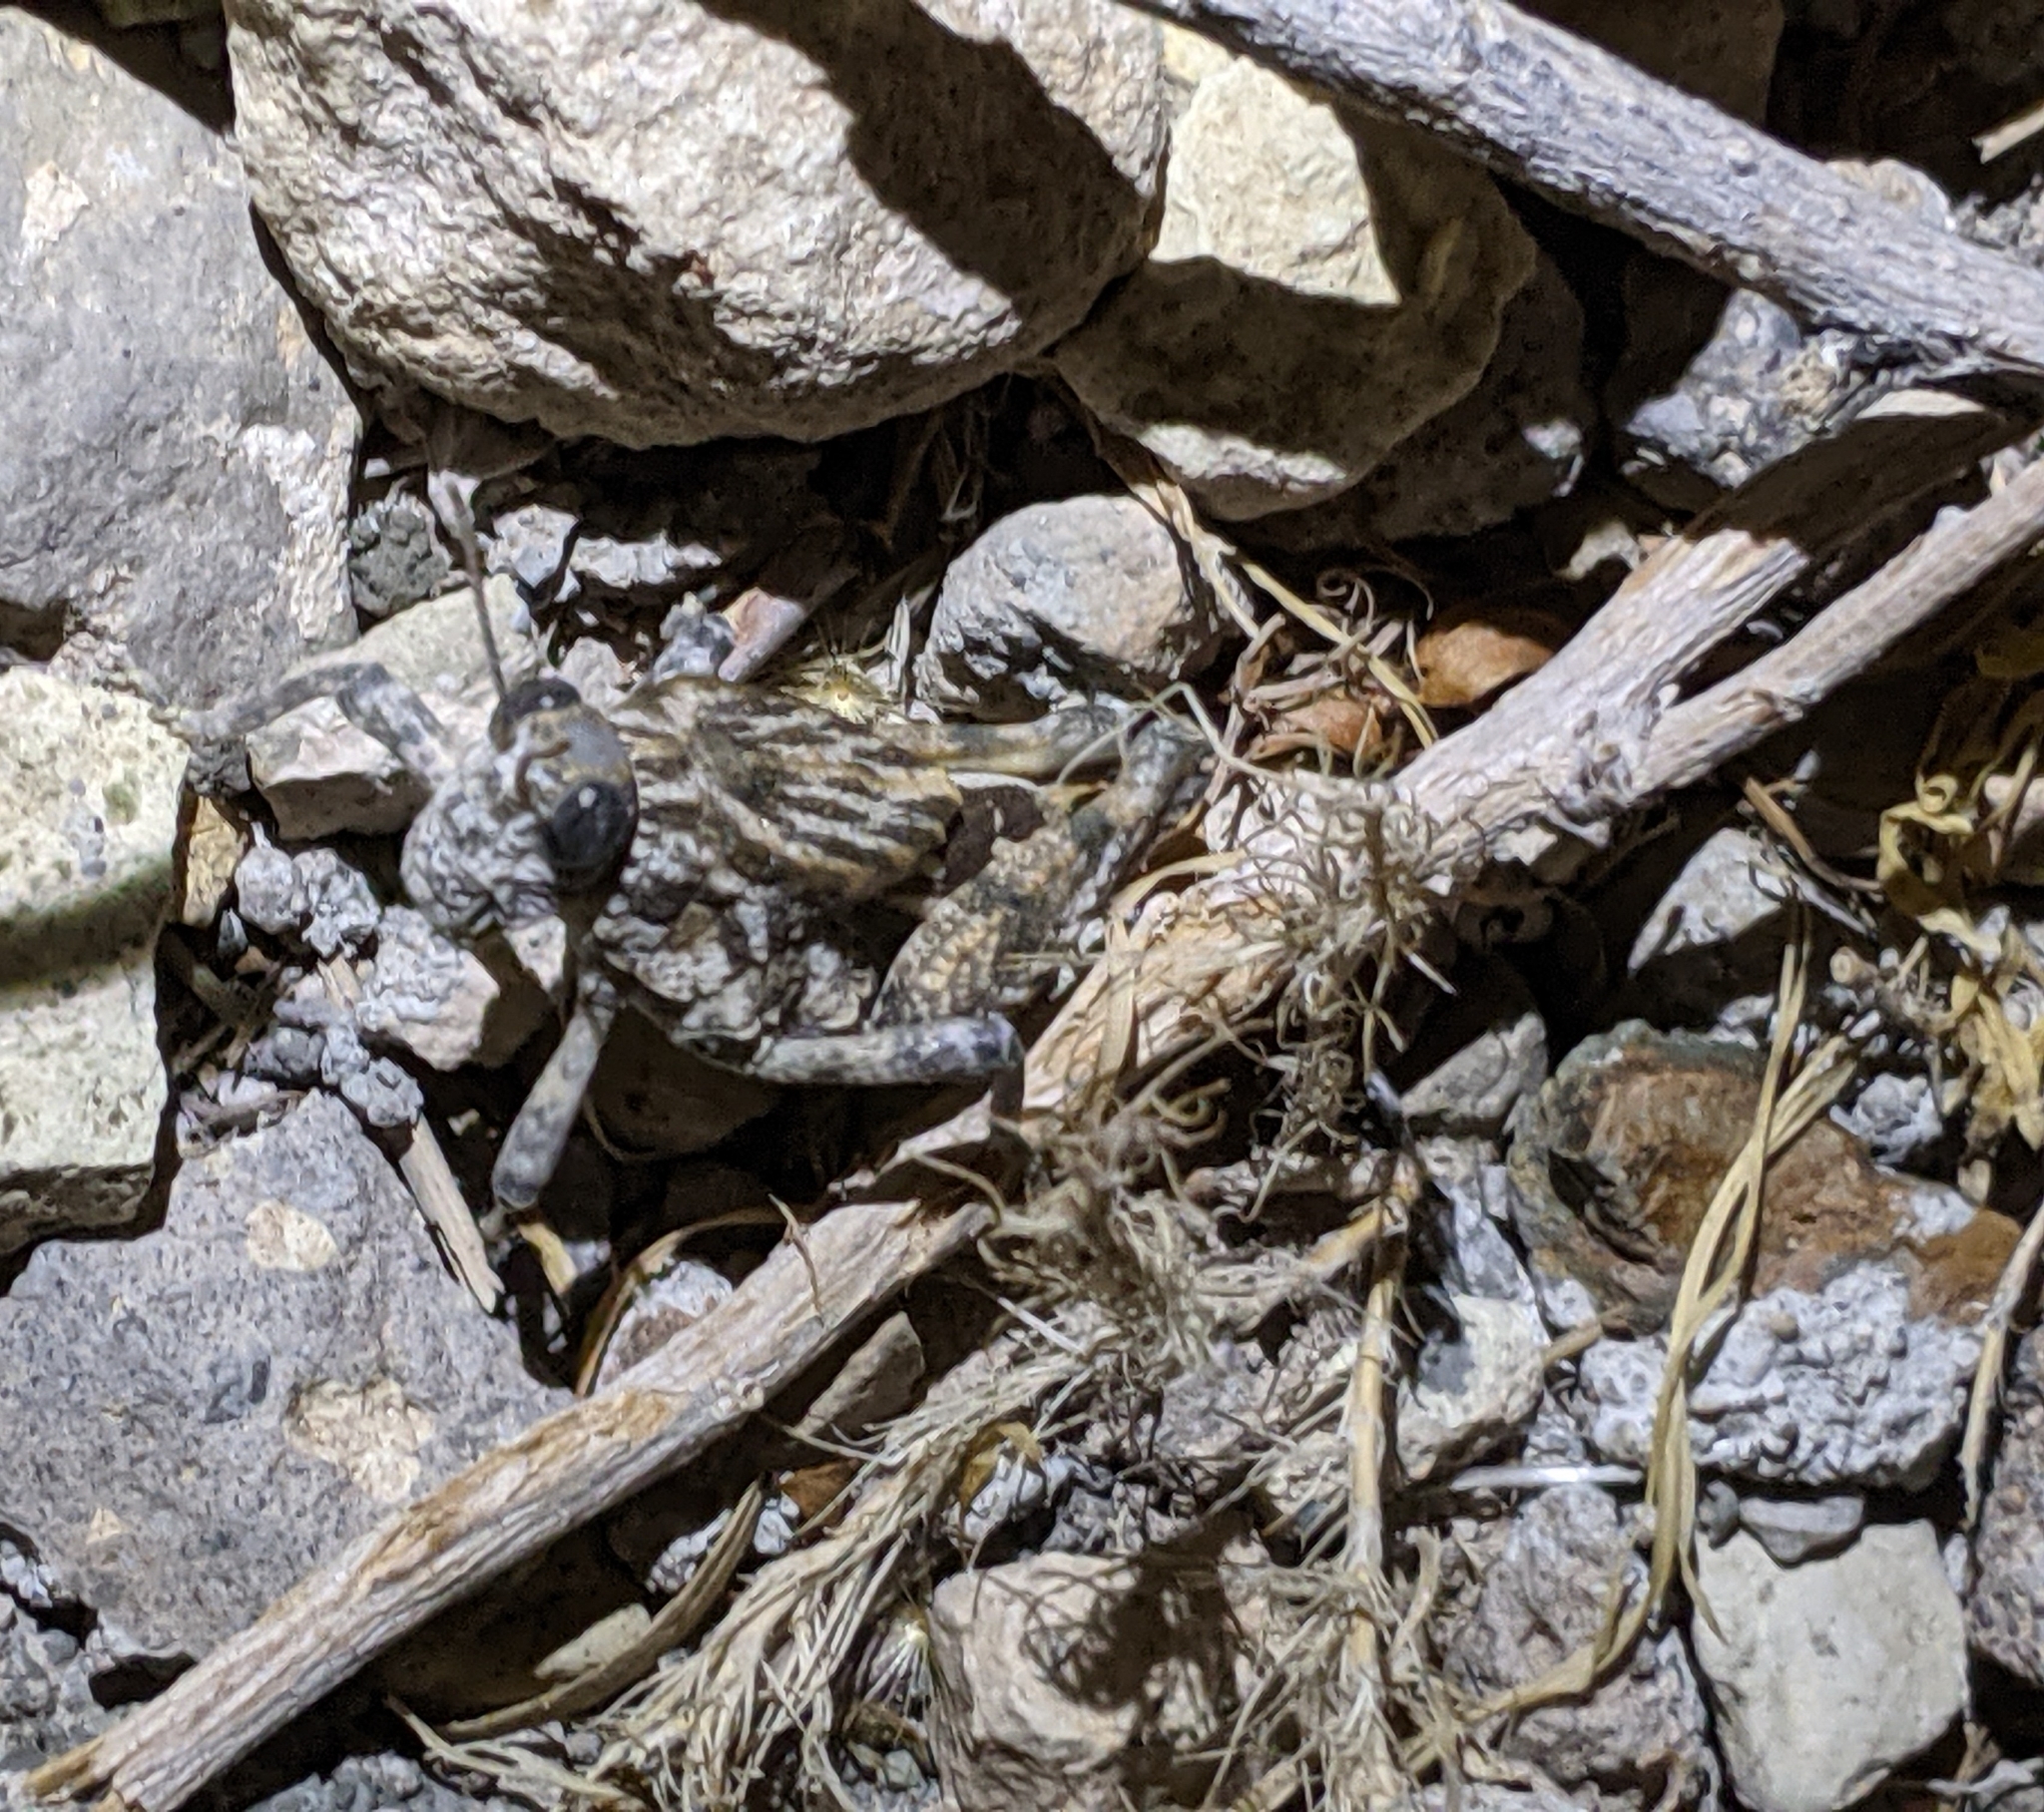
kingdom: Animalia
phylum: Arthropoda
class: Insecta
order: Orthoptera
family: Romaleidae
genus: Phrynotettix
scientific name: Phrynotettix robustus
